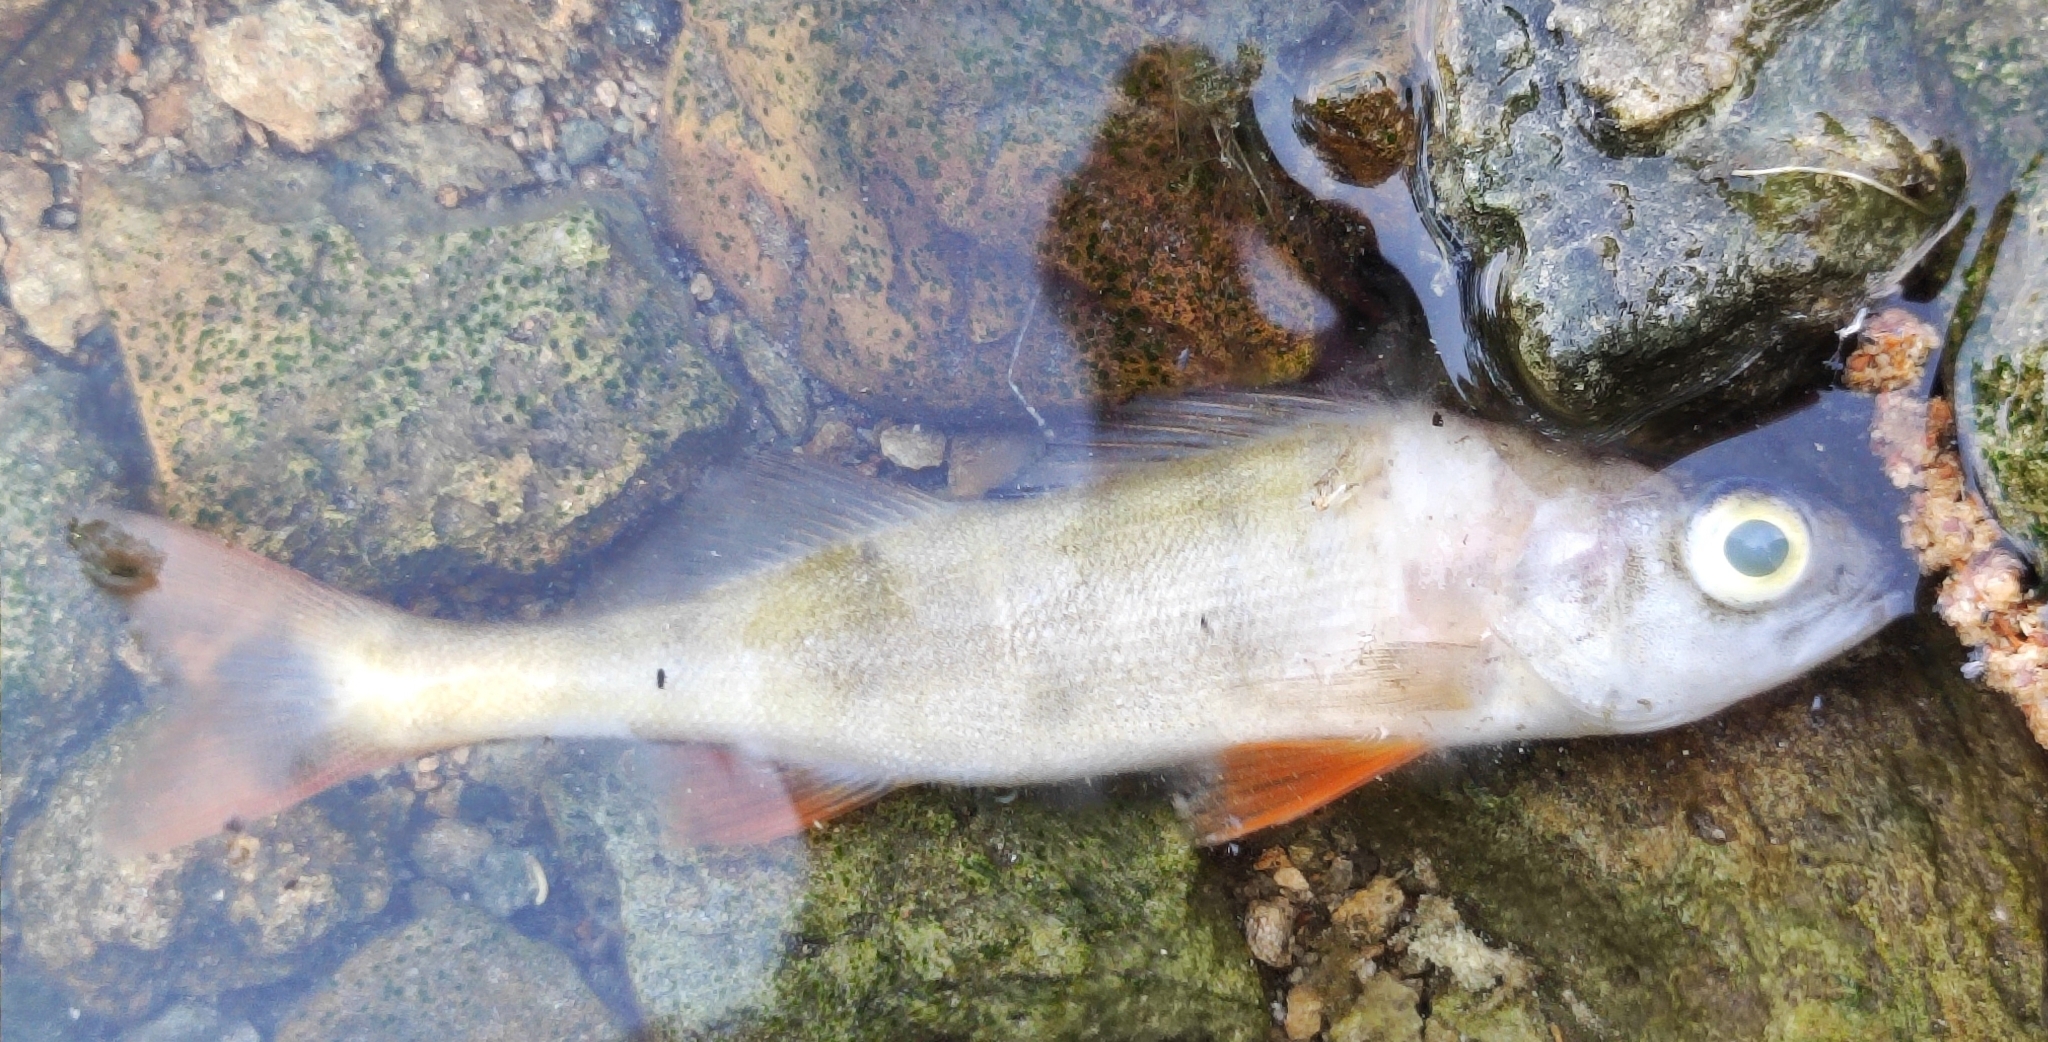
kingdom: Animalia
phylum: Chordata
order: Perciformes
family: Percidae
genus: Perca
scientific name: Perca fluviatilis
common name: Perch
